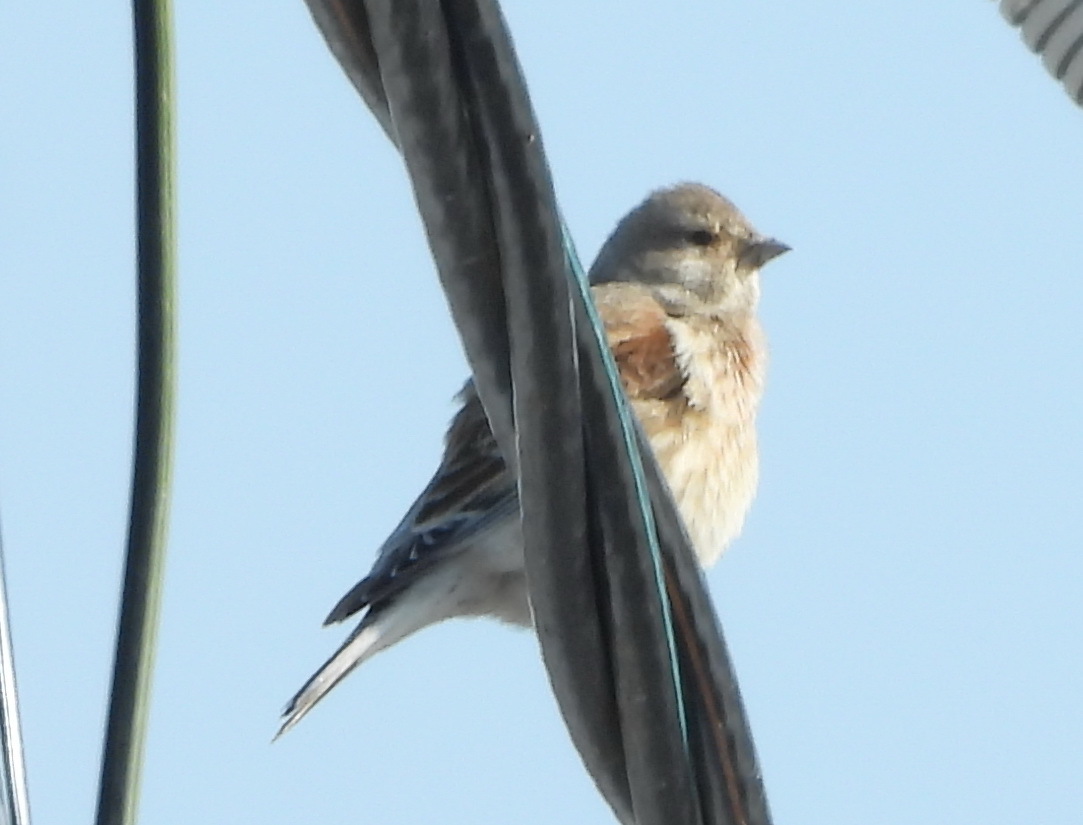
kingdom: Animalia
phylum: Chordata
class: Aves
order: Passeriformes
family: Fringillidae
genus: Linaria
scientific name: Linaria cannabina
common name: Common linnet
